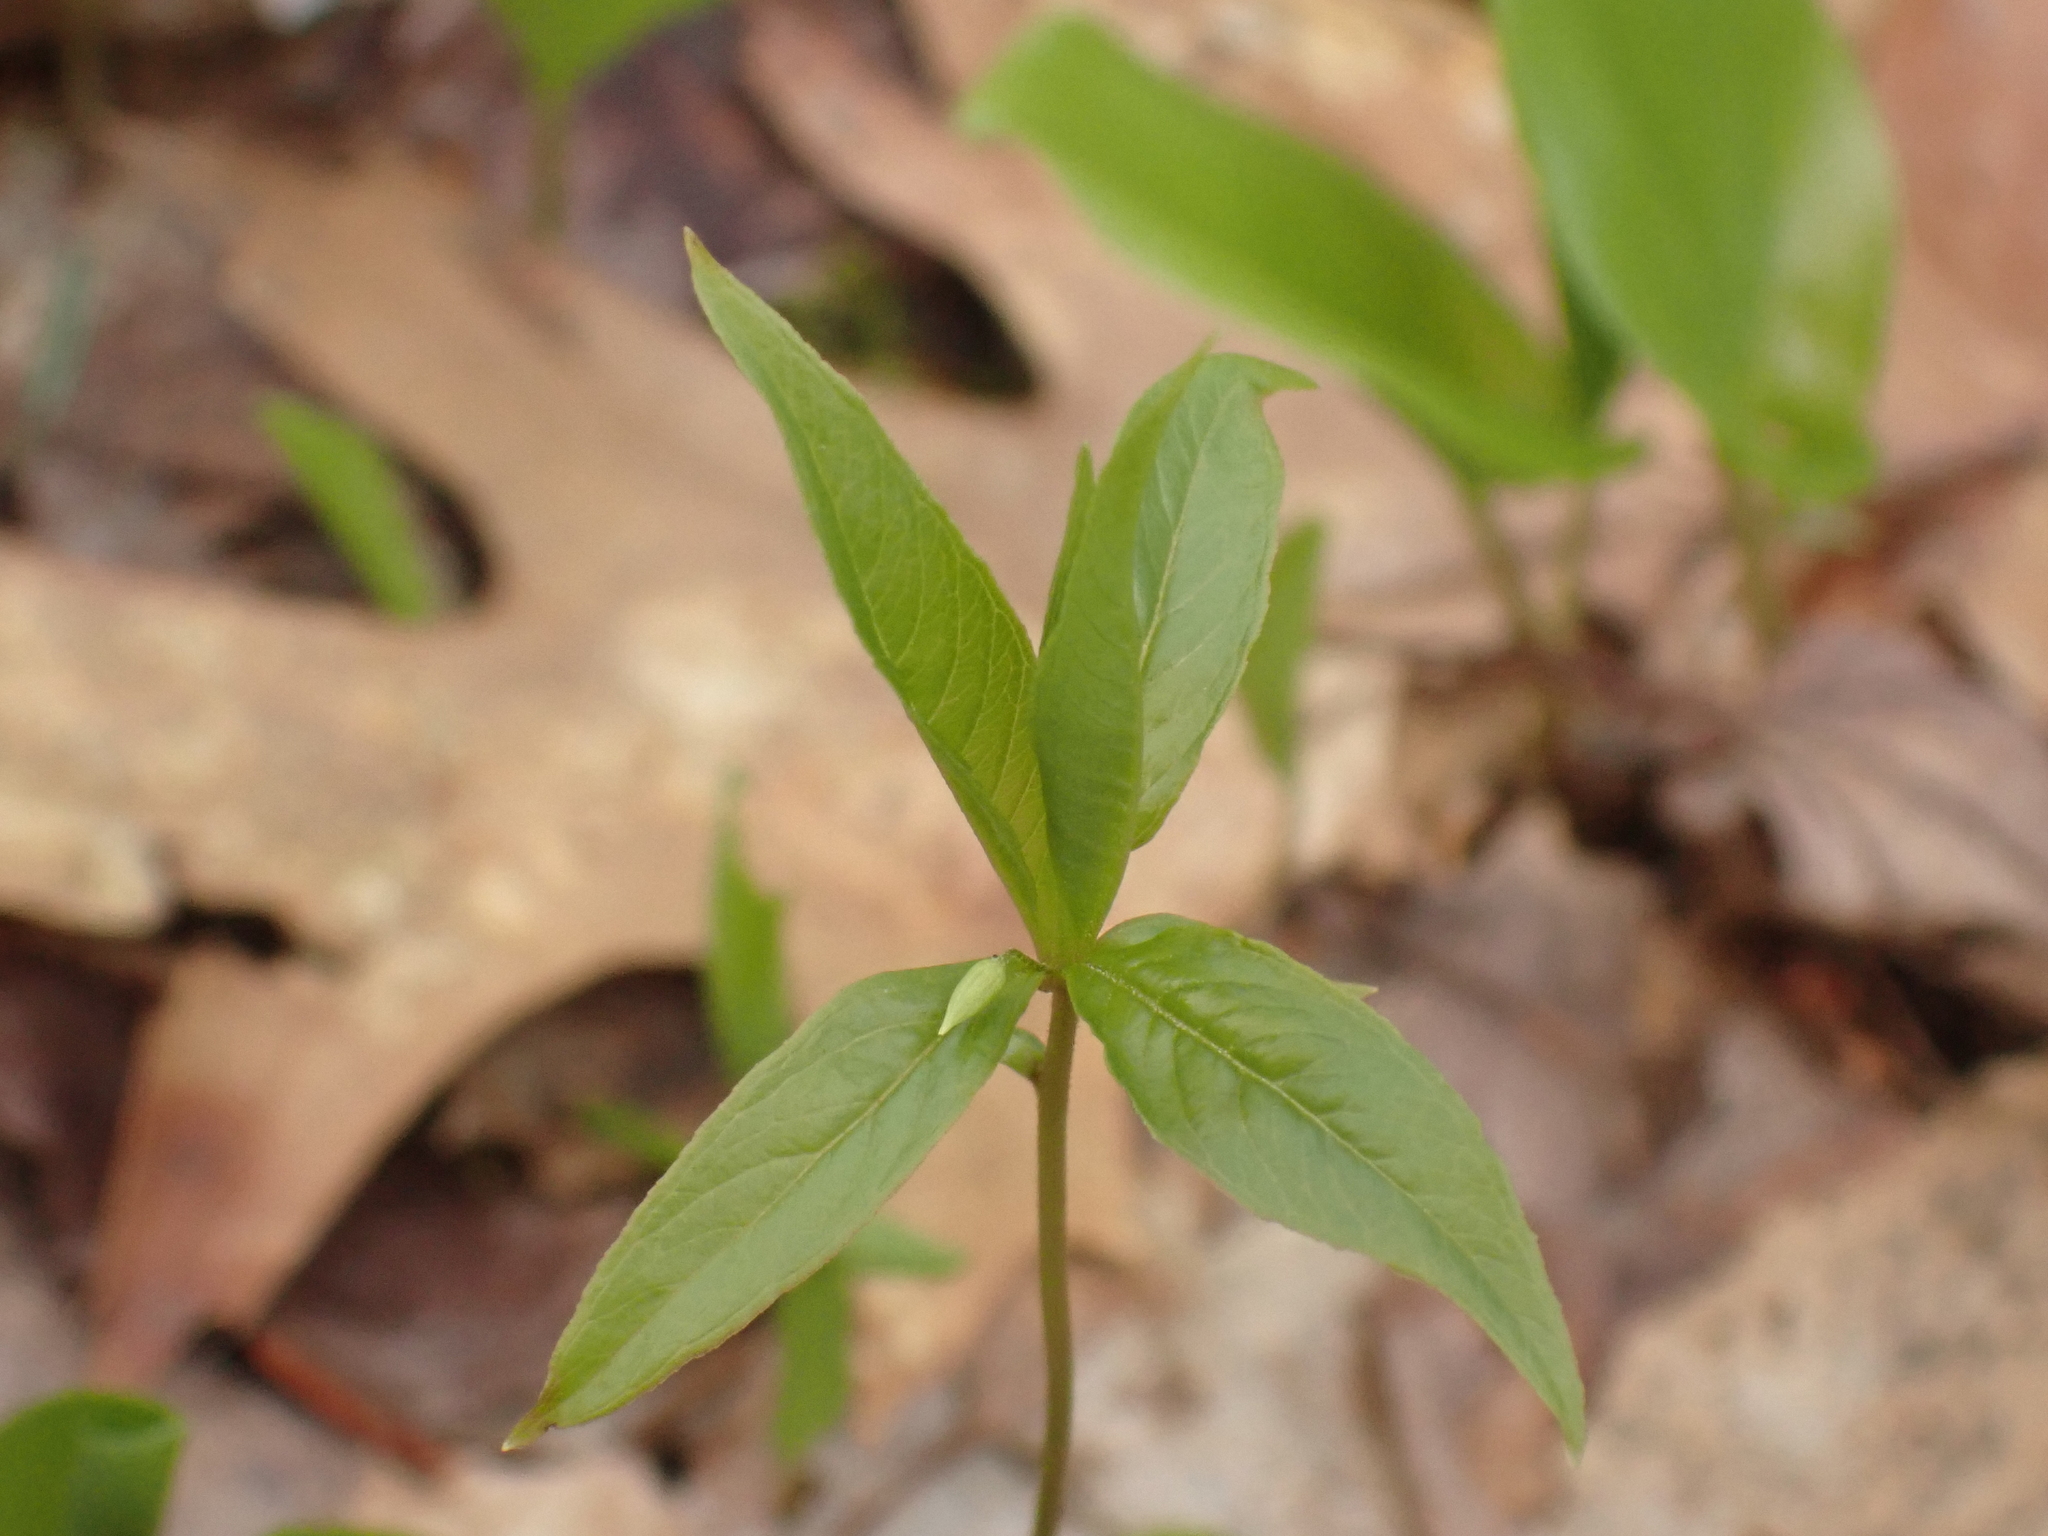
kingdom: Plantae
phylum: Tracheophyta
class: Magnoliopsida
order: Ericales
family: Primulaceae
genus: Lysimachia
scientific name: Lysimachia borealis
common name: American starflower
